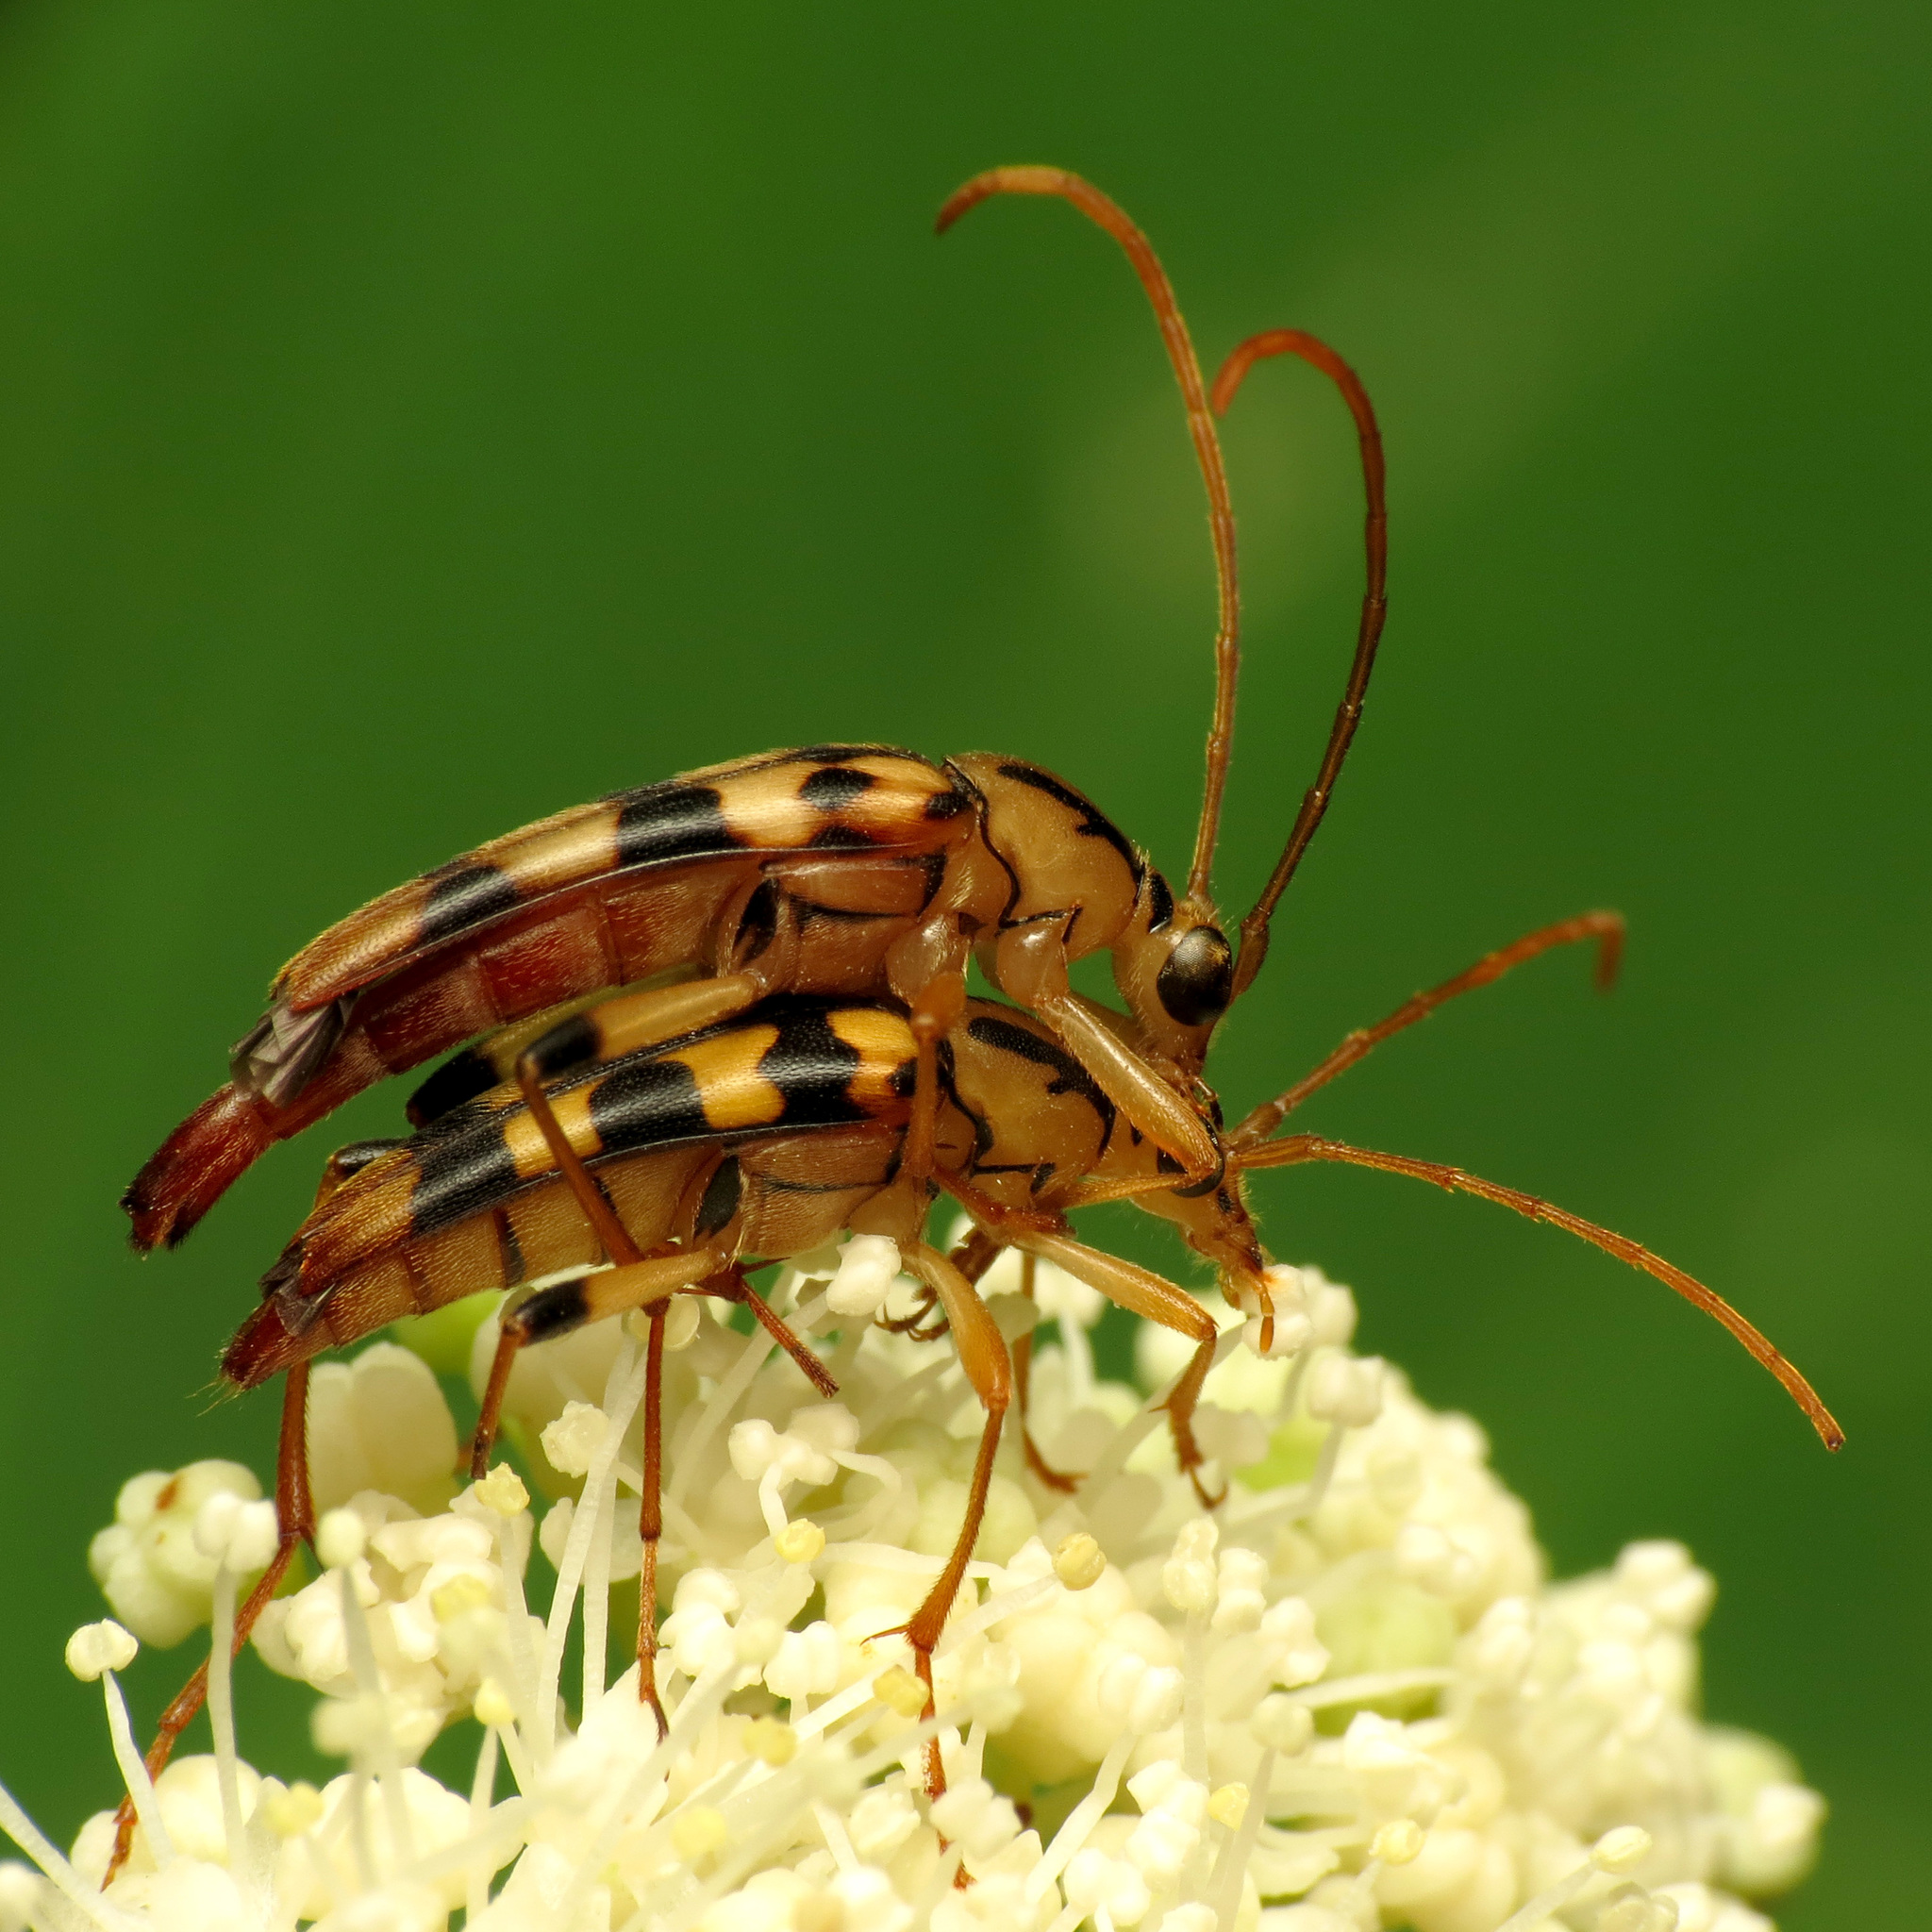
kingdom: Animalia
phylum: Arthropoda
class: Insecta
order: Coleoptera
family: Cerambycidae
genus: Strangalia
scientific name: Strangalia luteicornis
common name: Yellow-horned flower longhorn beetle
